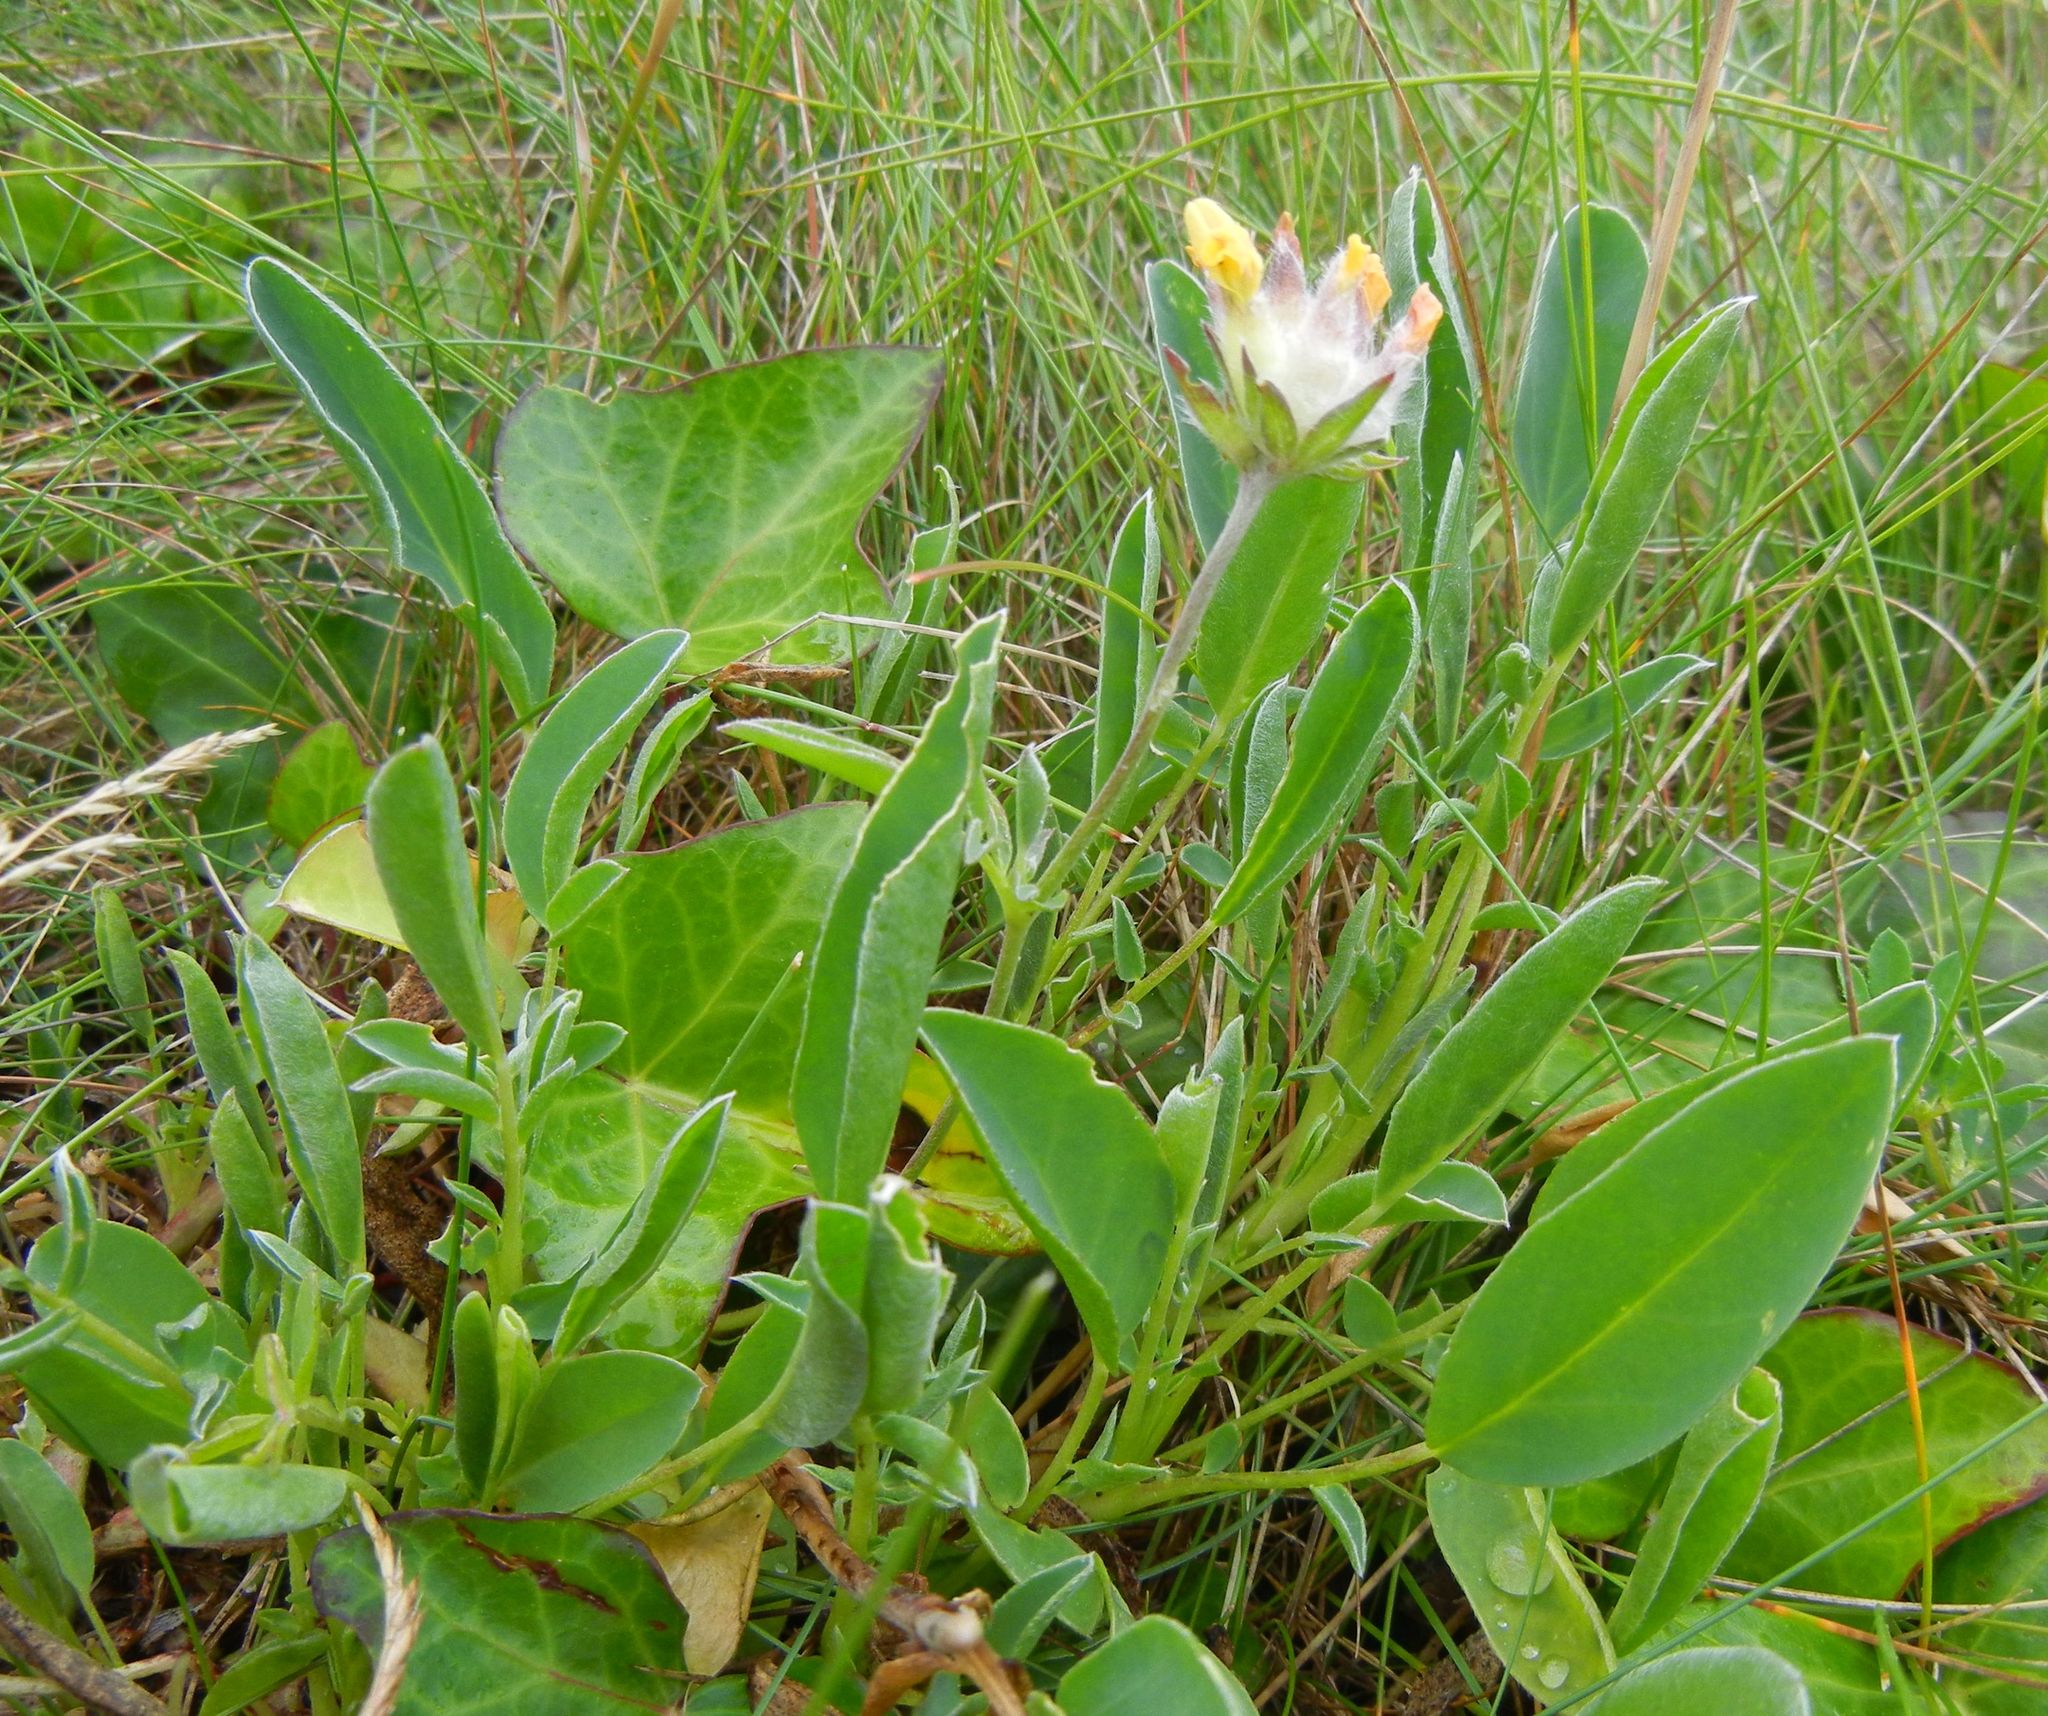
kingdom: Plantae
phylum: Tracheophyta
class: Magnoliopsida
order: Fabales
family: Fabaceae
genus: Anthyllis
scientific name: Anthyllis vulneraria
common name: Kidney vetch
